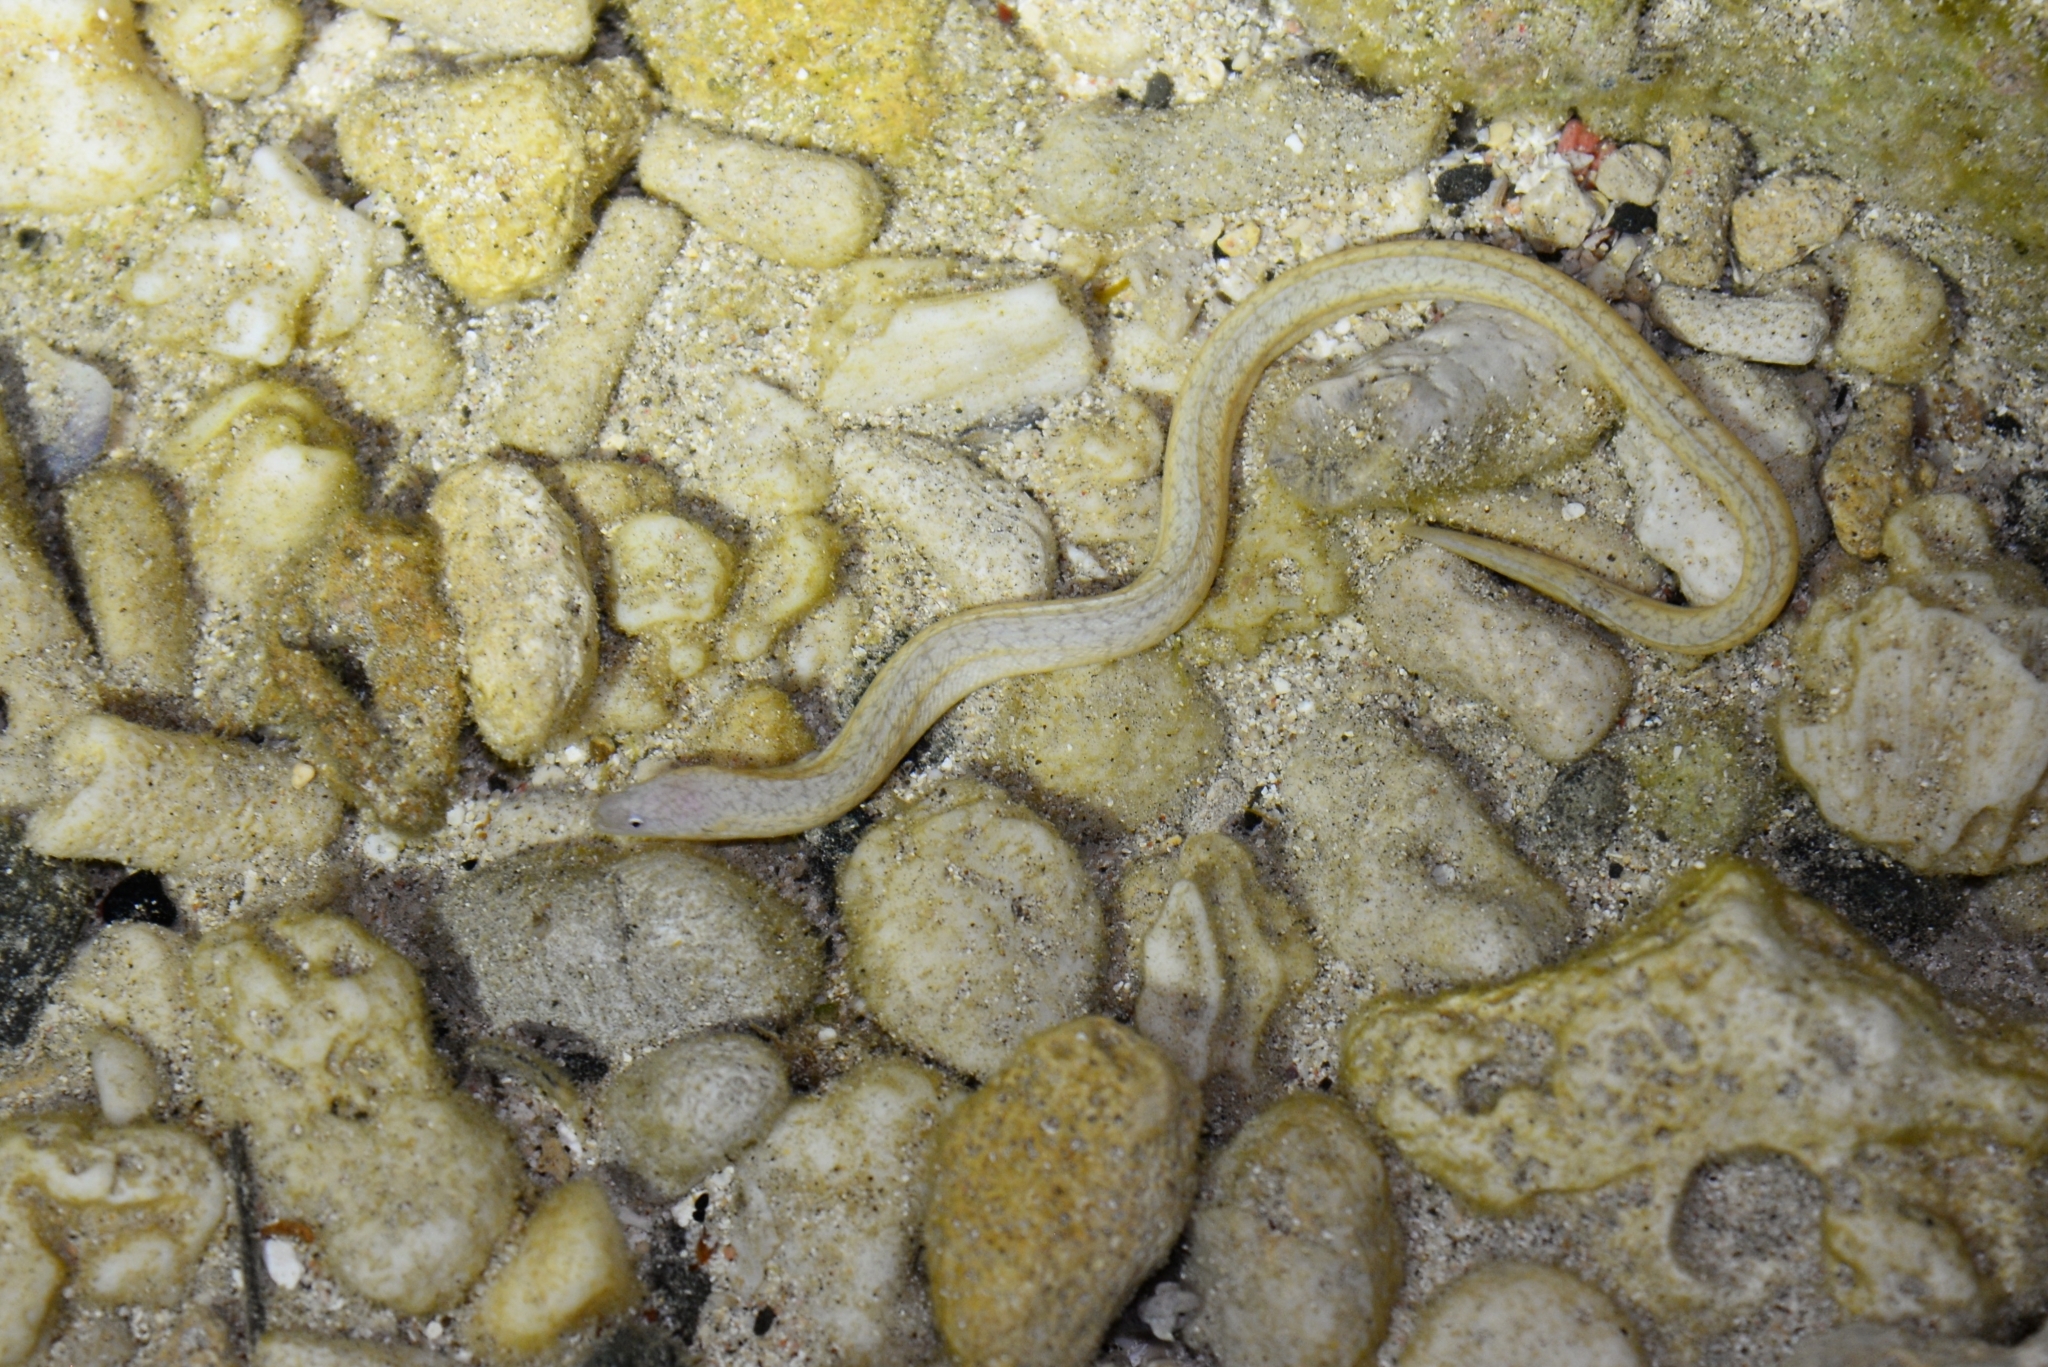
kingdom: Animalia
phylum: Chordata
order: Anguilliformes
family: Muraenidae
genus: Uropterygius
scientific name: Uropterygius micropterus
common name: Tidepool snake moray
